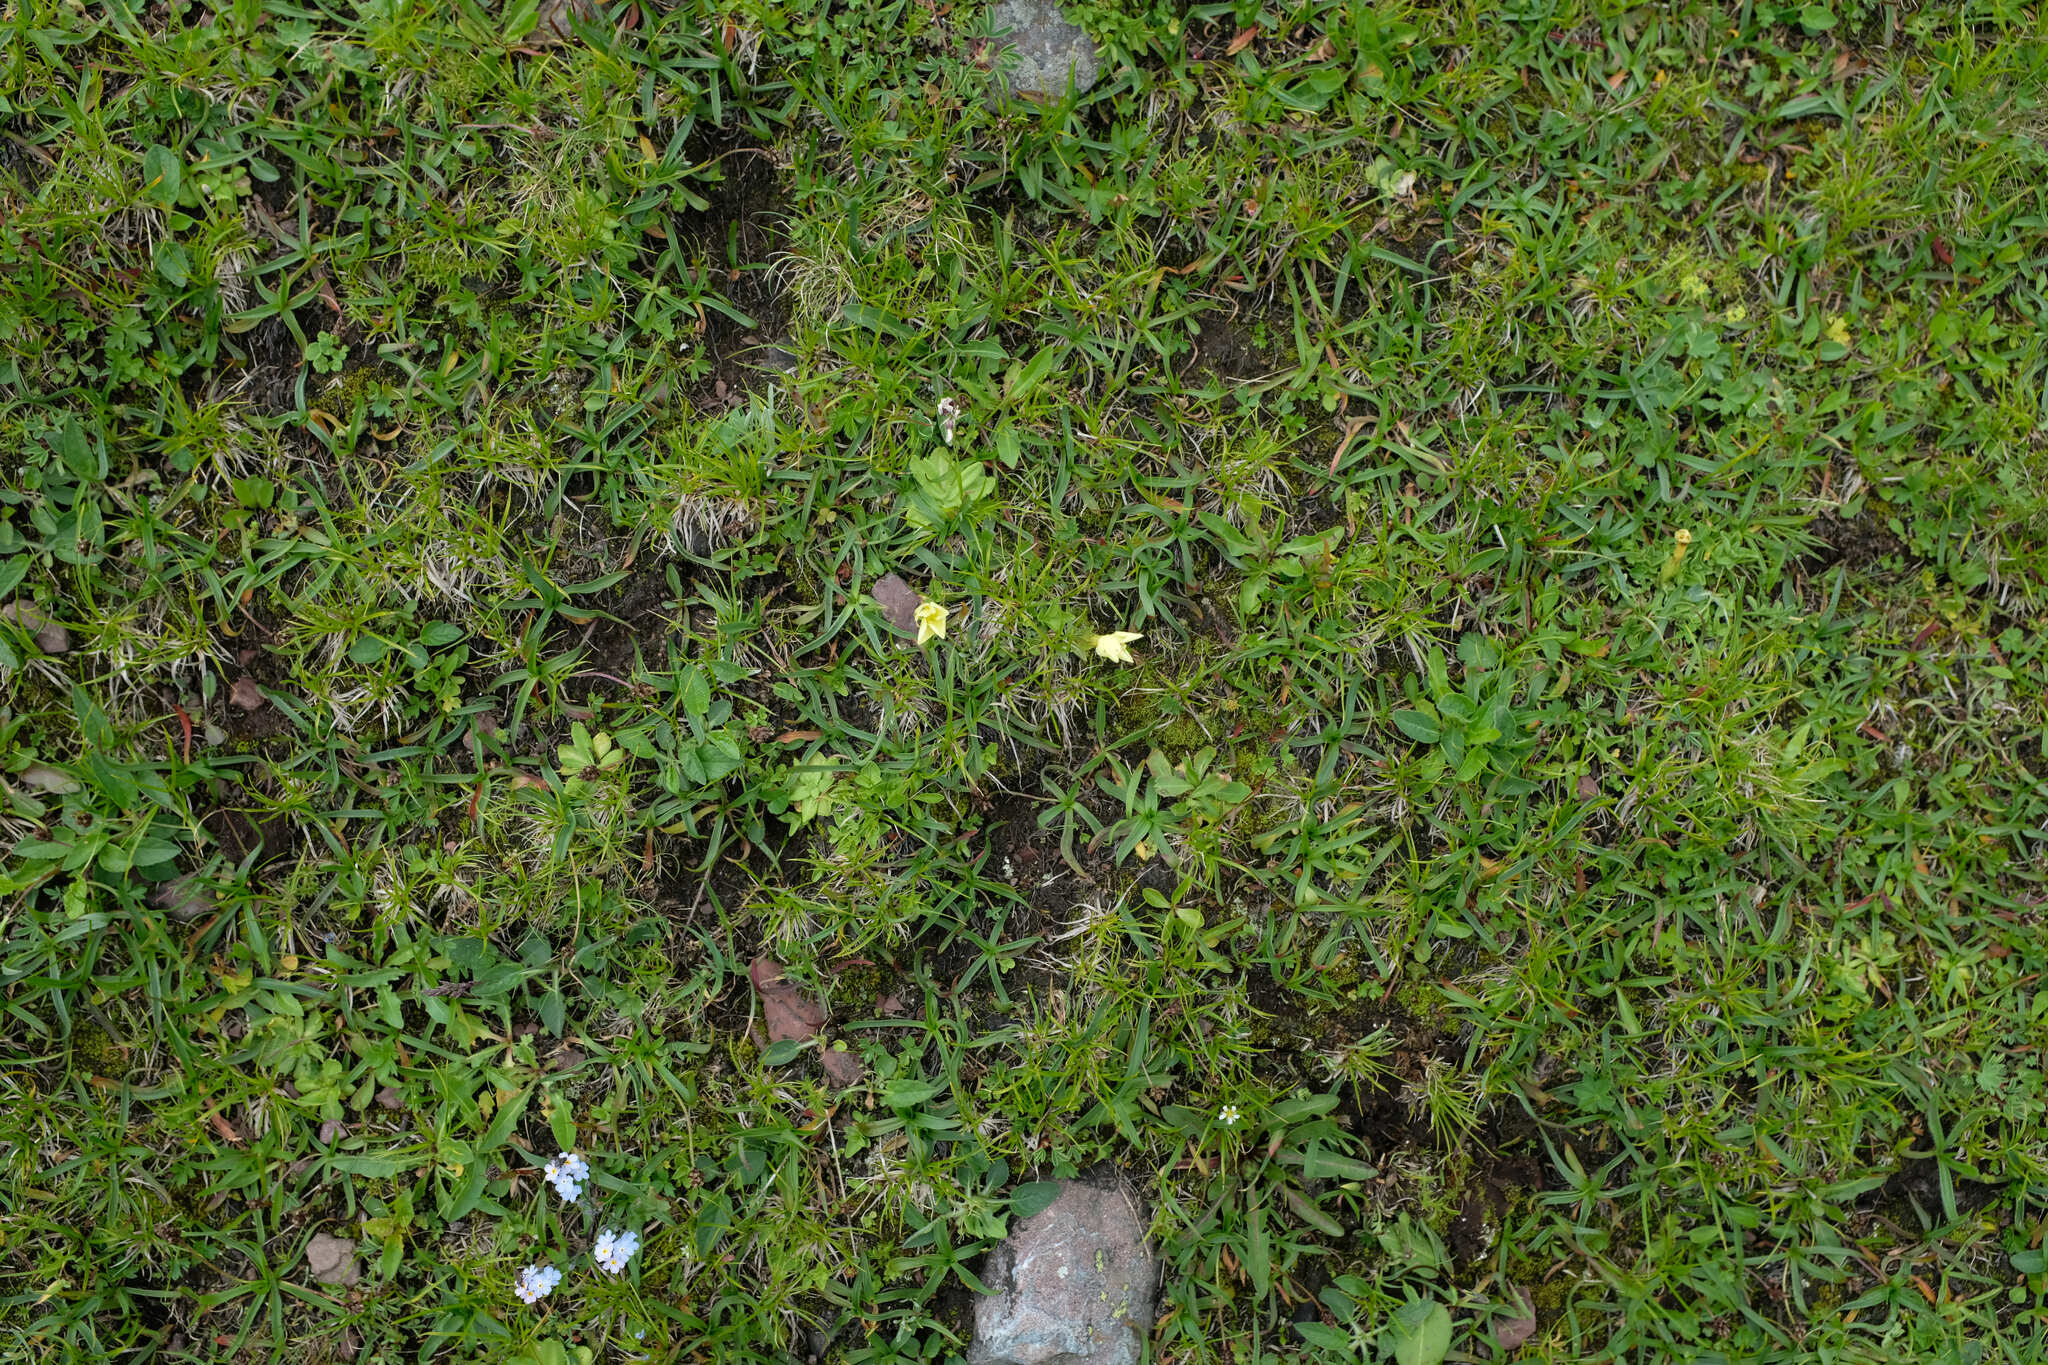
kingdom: Plantae
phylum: Tracheophyta
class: Magnoliopsida
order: Gentianales
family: Gentianaceae
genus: Gentiana
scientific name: Gentiana verna
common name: Spring gentian
